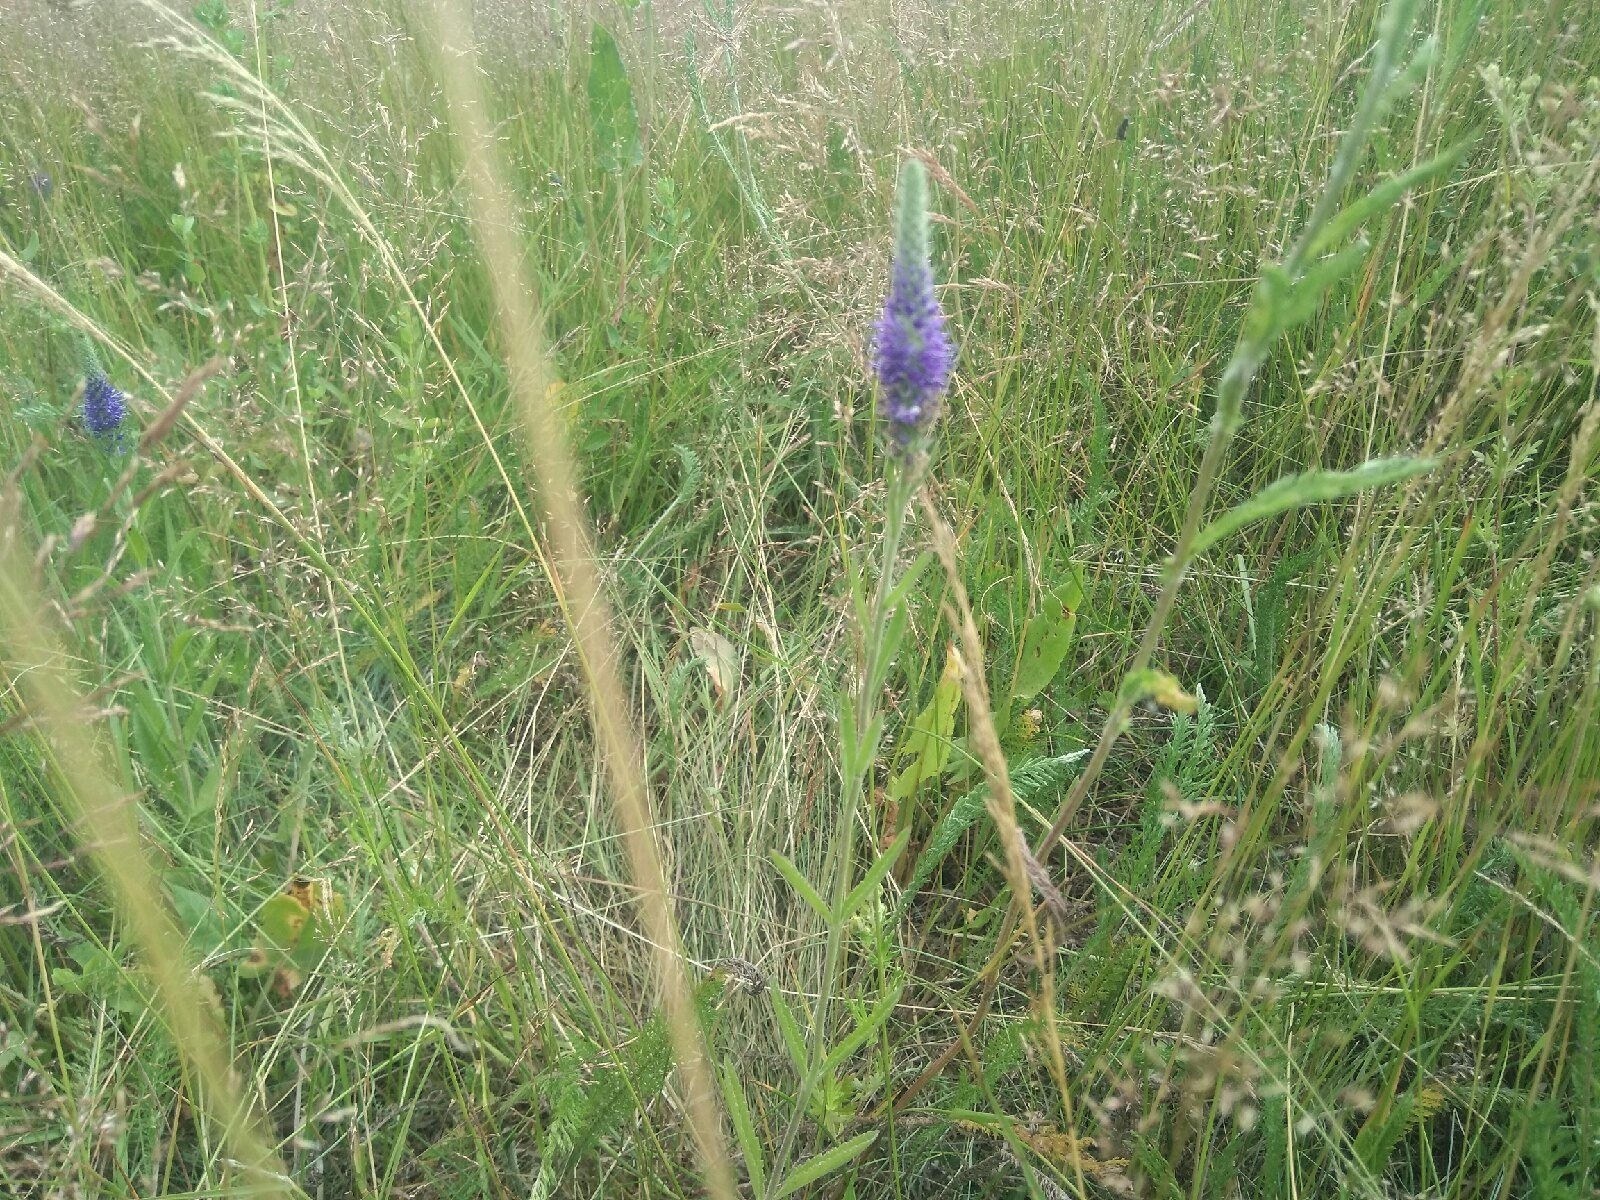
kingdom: Plantae
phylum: Tracheophyta
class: Magnoliopsida
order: Lamiales
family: Plantaginaceae
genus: Veronica
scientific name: Veronica spicata
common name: Spiked speedwell
